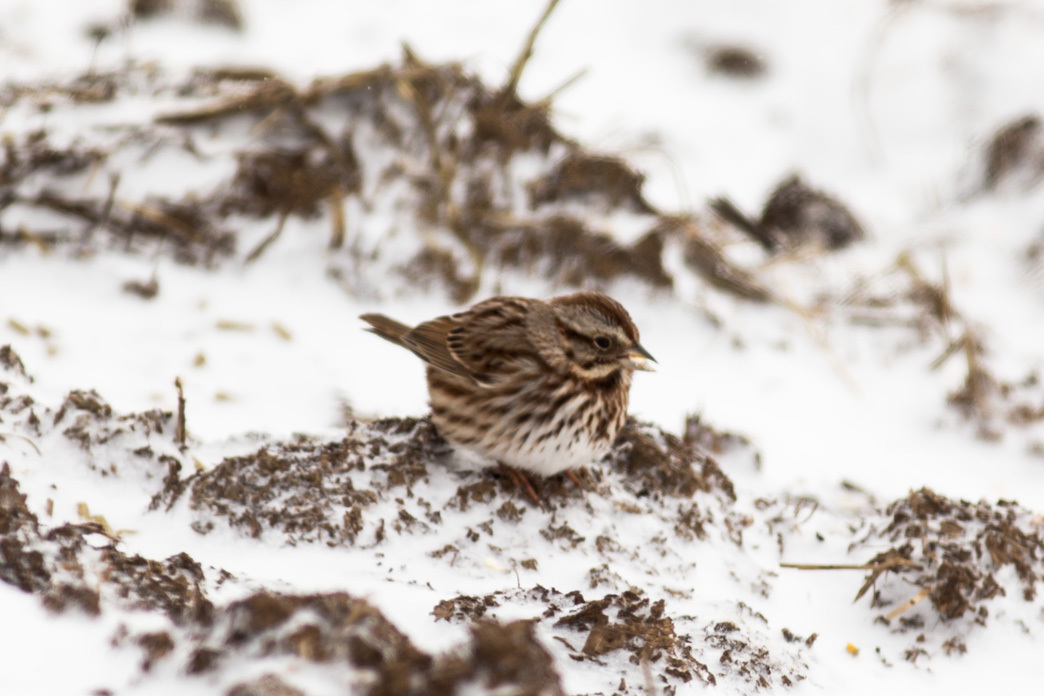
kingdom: Animalia
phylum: Chordata
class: Aves
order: Passeriformes
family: Passerellidae
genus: Melospiza
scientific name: Melospiza melodia
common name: Song sparrow
